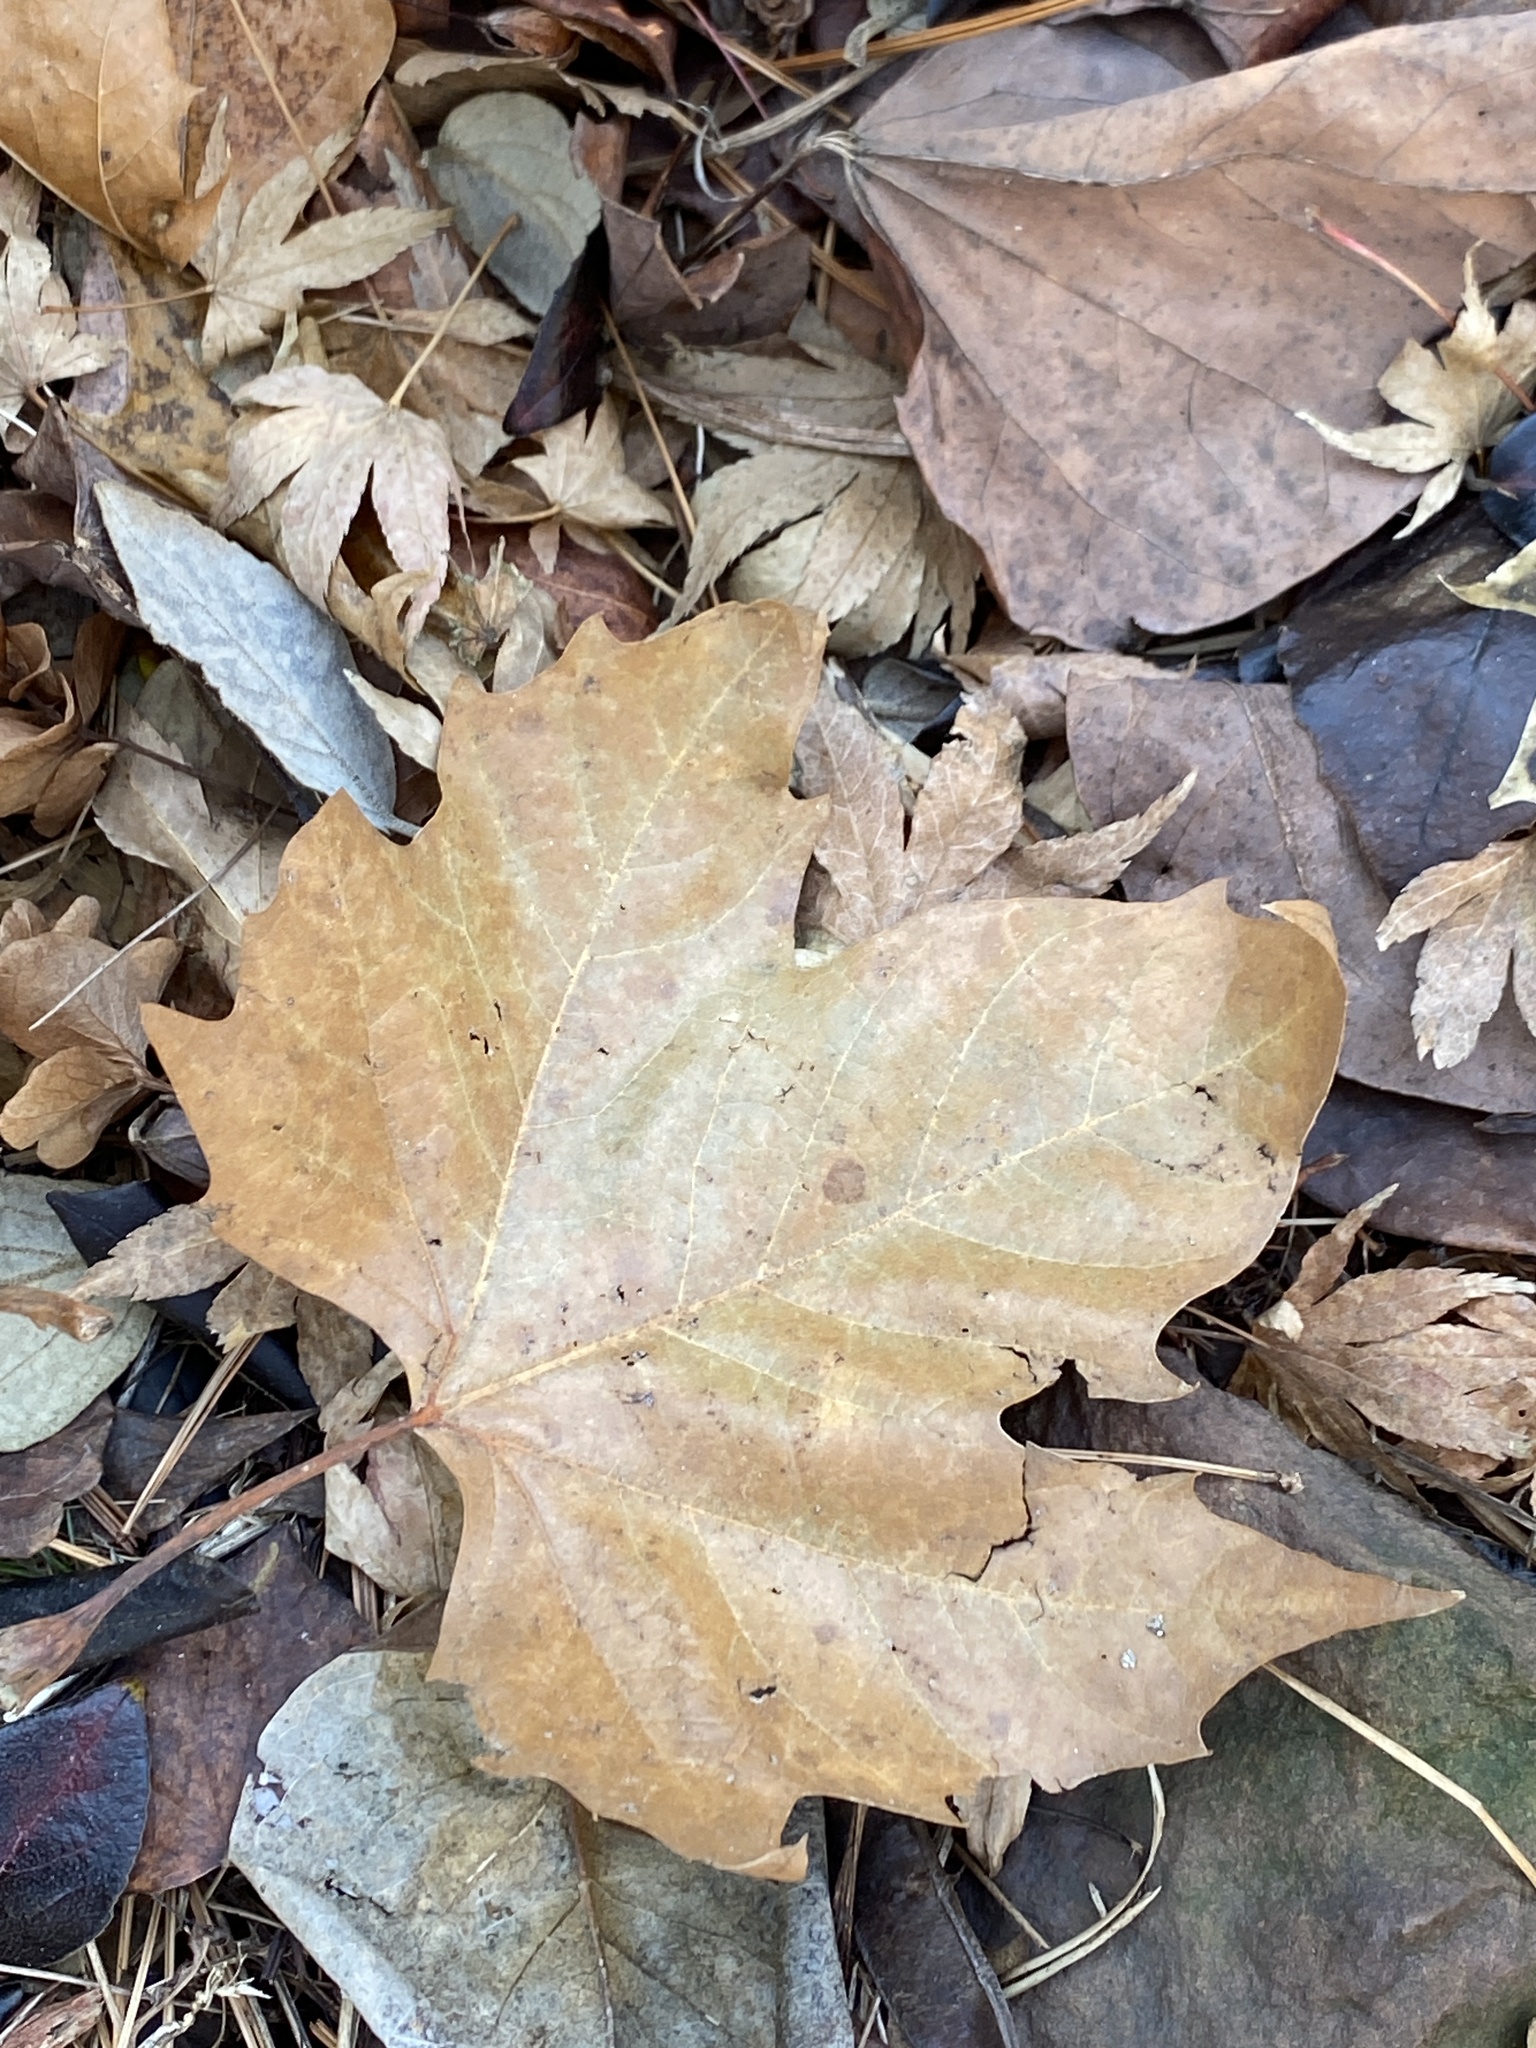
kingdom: Plantae
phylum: Tracheophyta
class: Magnoliopsida
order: Proteales
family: Platanaceae
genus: Platanus
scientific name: Platanus occidentalis
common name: American sycamore
